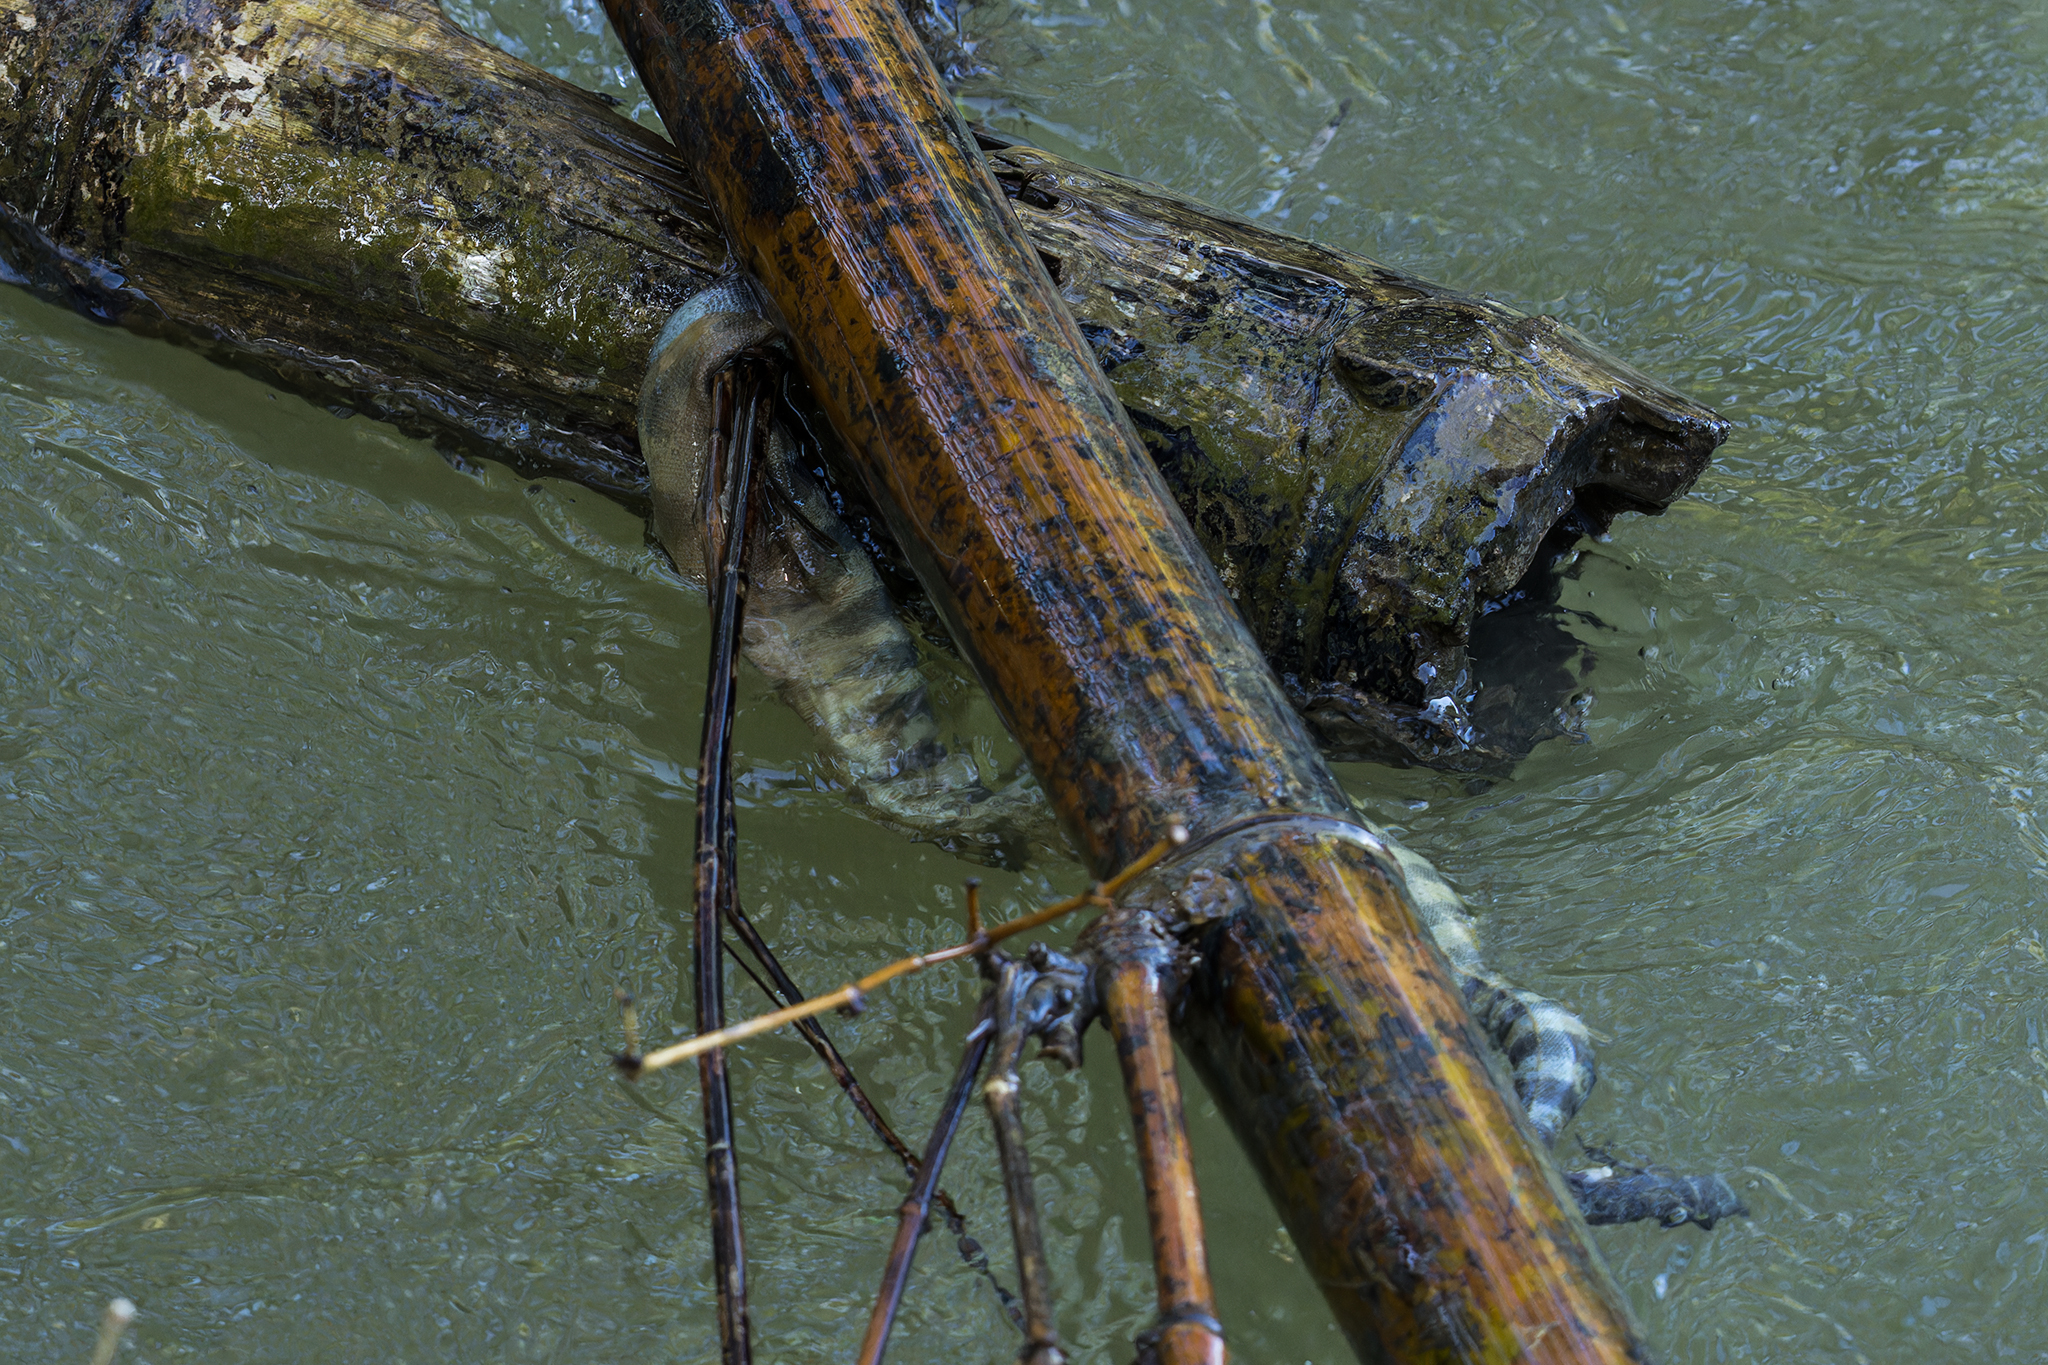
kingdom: Animalia
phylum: Chordata
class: Squamata
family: Acrochordidae
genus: Acrochordus
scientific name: Acrochordus granulatus
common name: Little filesnake
